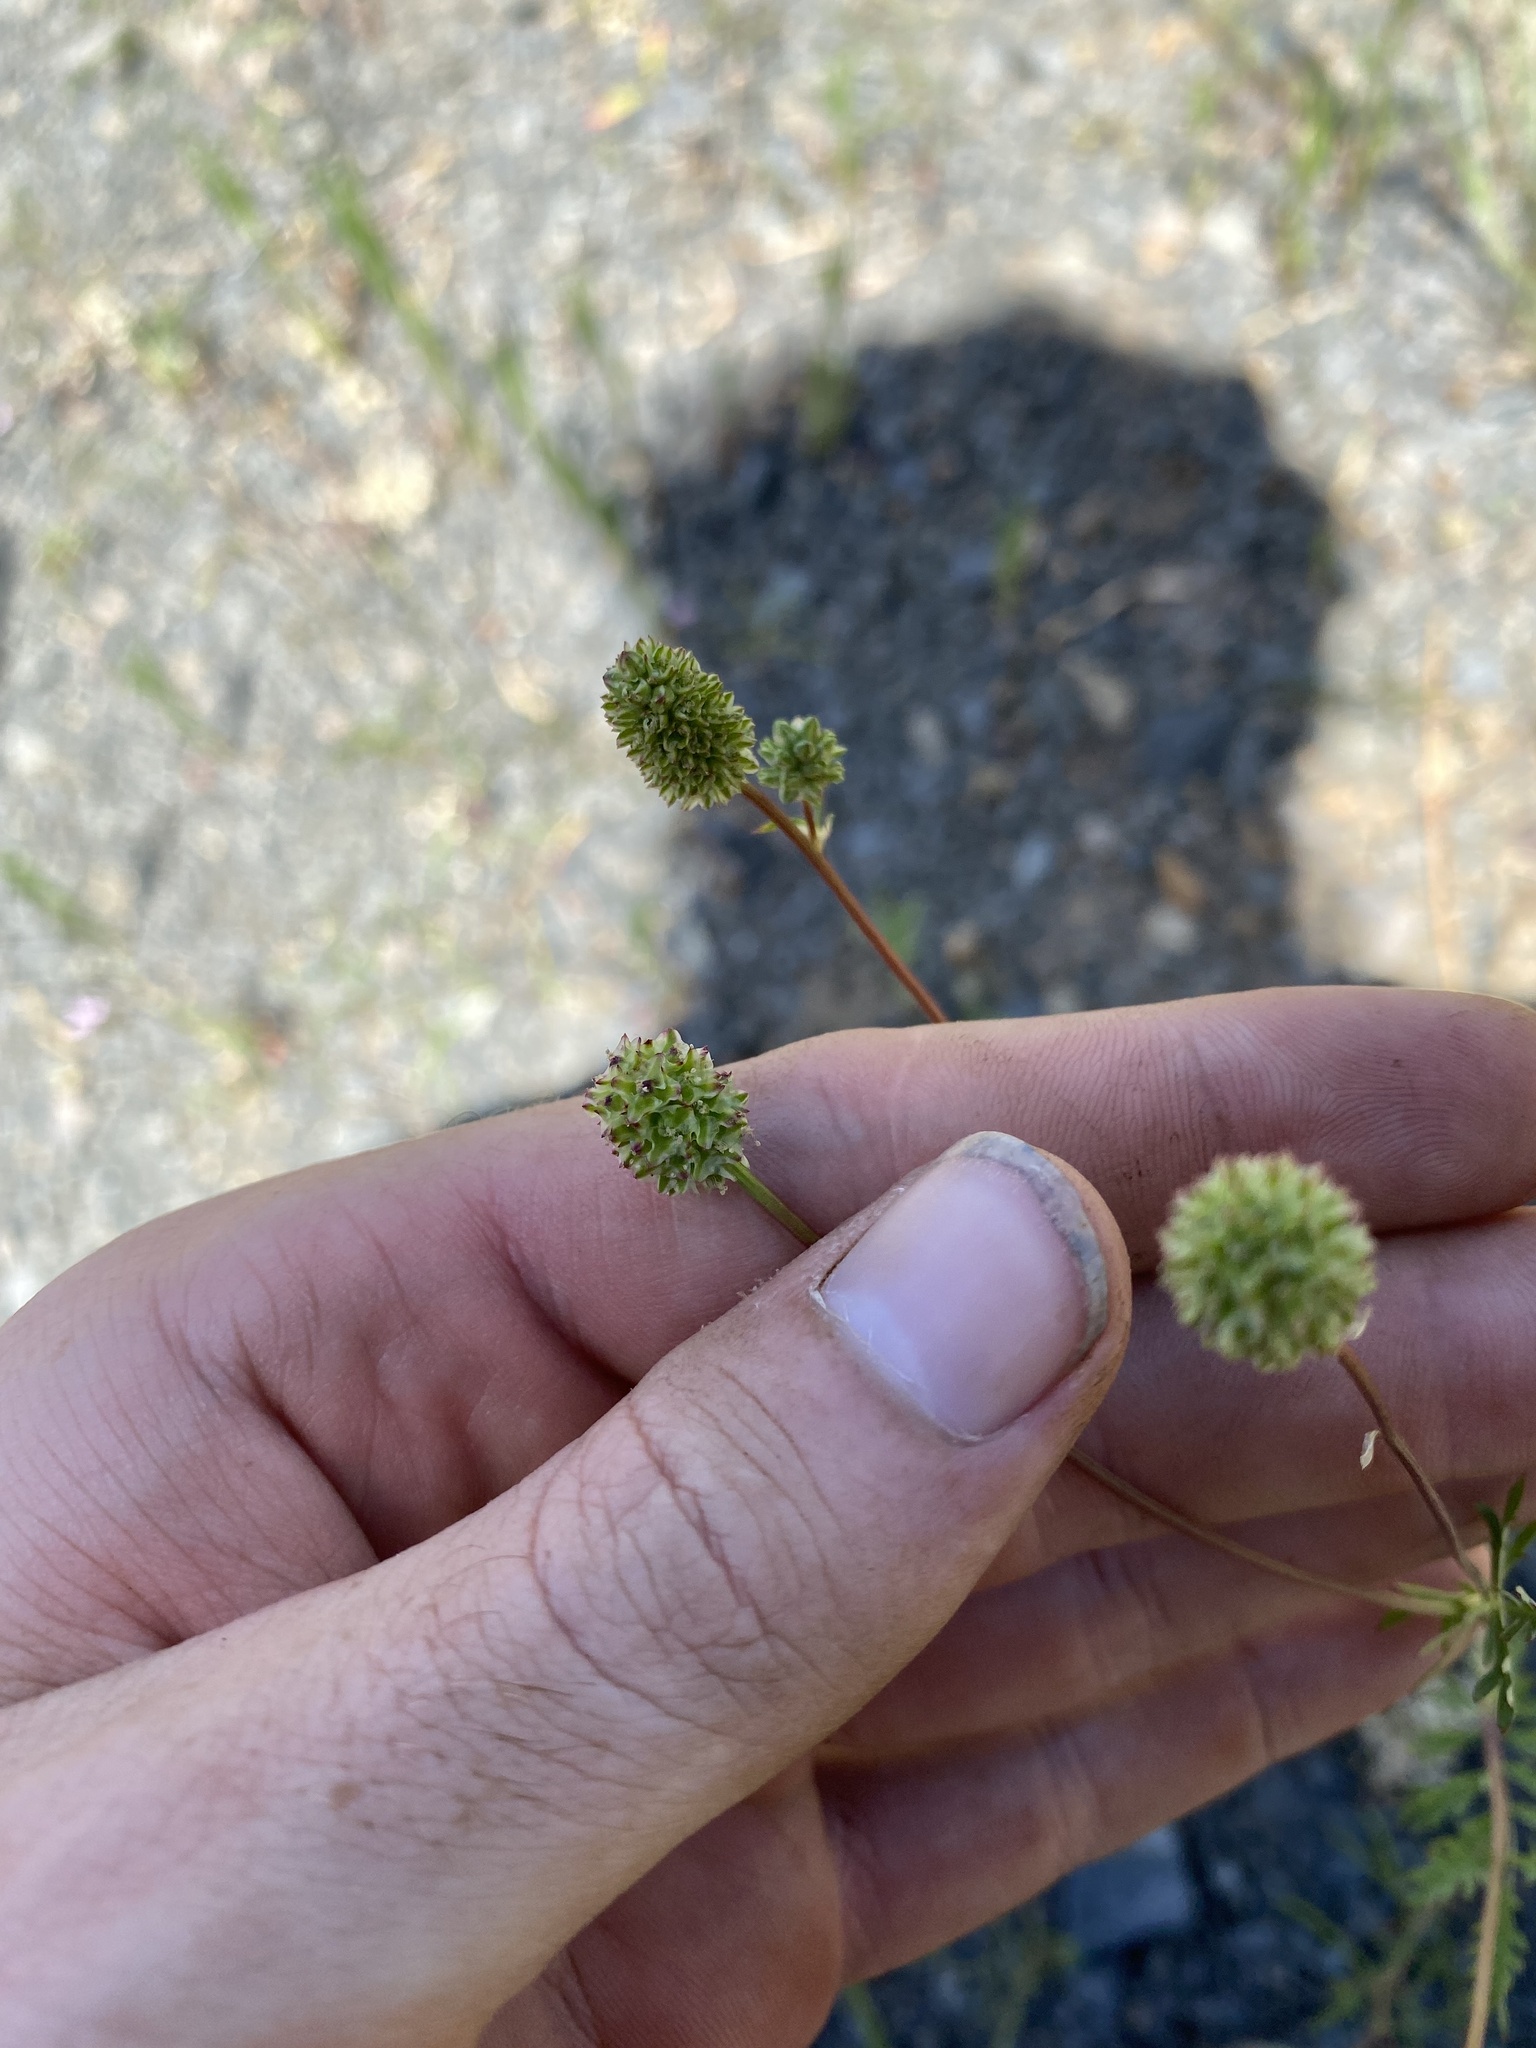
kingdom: Plantae
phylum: Tracheophyta
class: Magnoliopsida
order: Rosales
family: Rosaceae
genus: Poteridium
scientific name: Poteridium occidentale
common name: Western burnet
